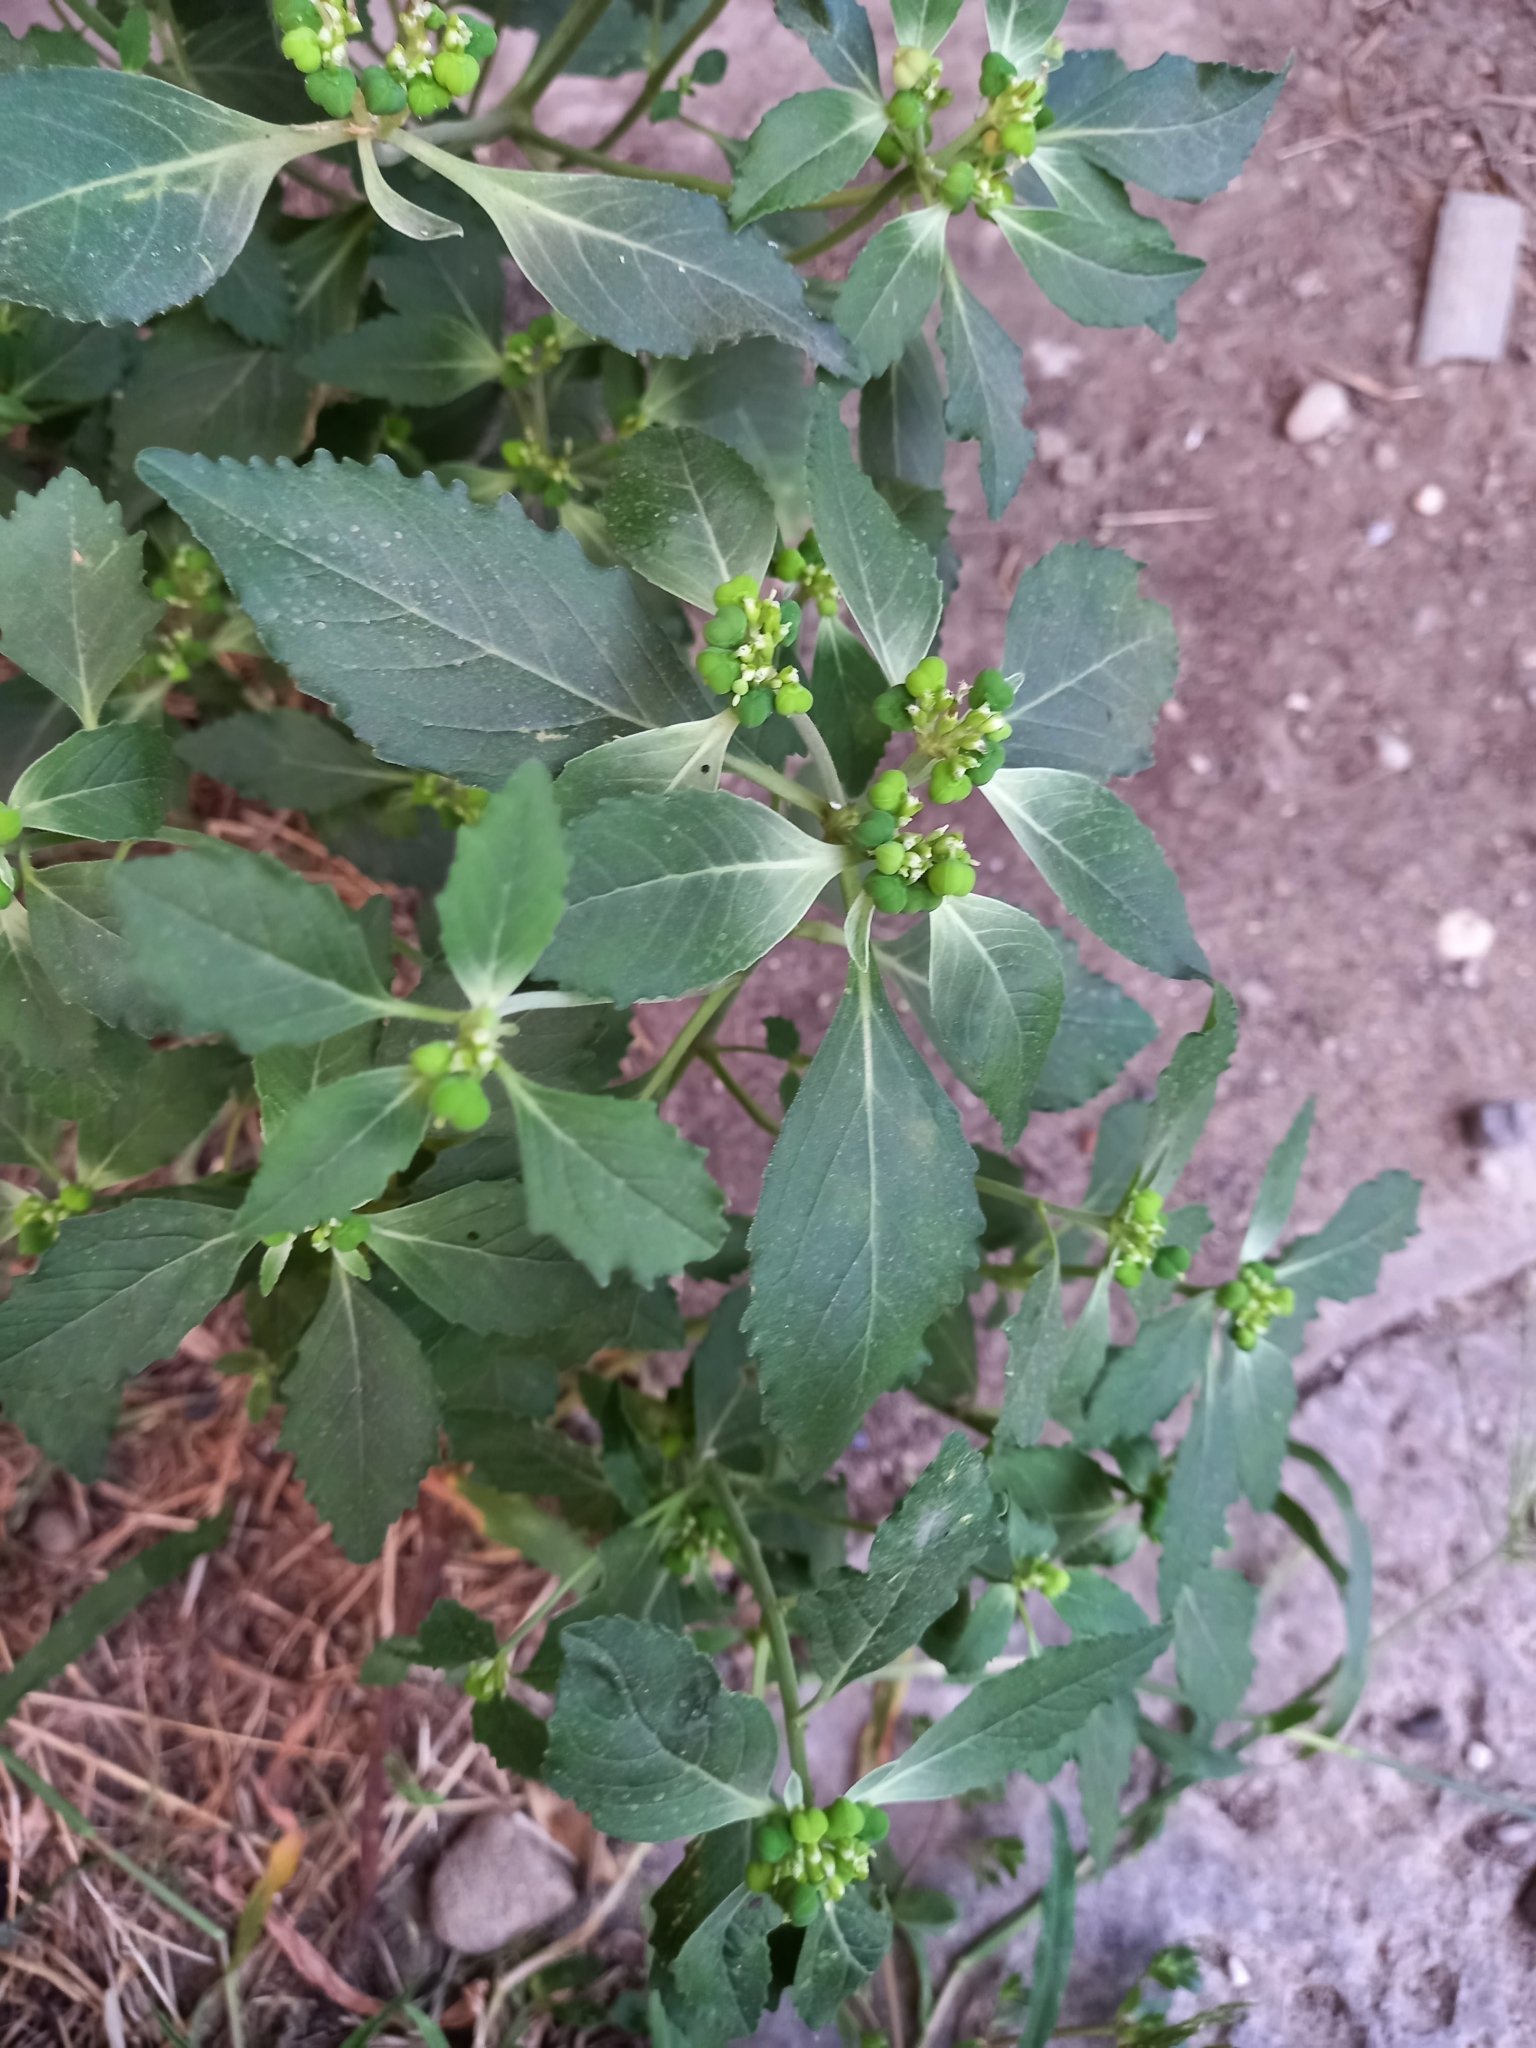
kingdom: Plantae
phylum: Tracheophyta
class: Magnoliopsida
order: Malpighiales
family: Euphorbiaceae
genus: Euphorbia
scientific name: Euphorbia davidii
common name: David's spurge
